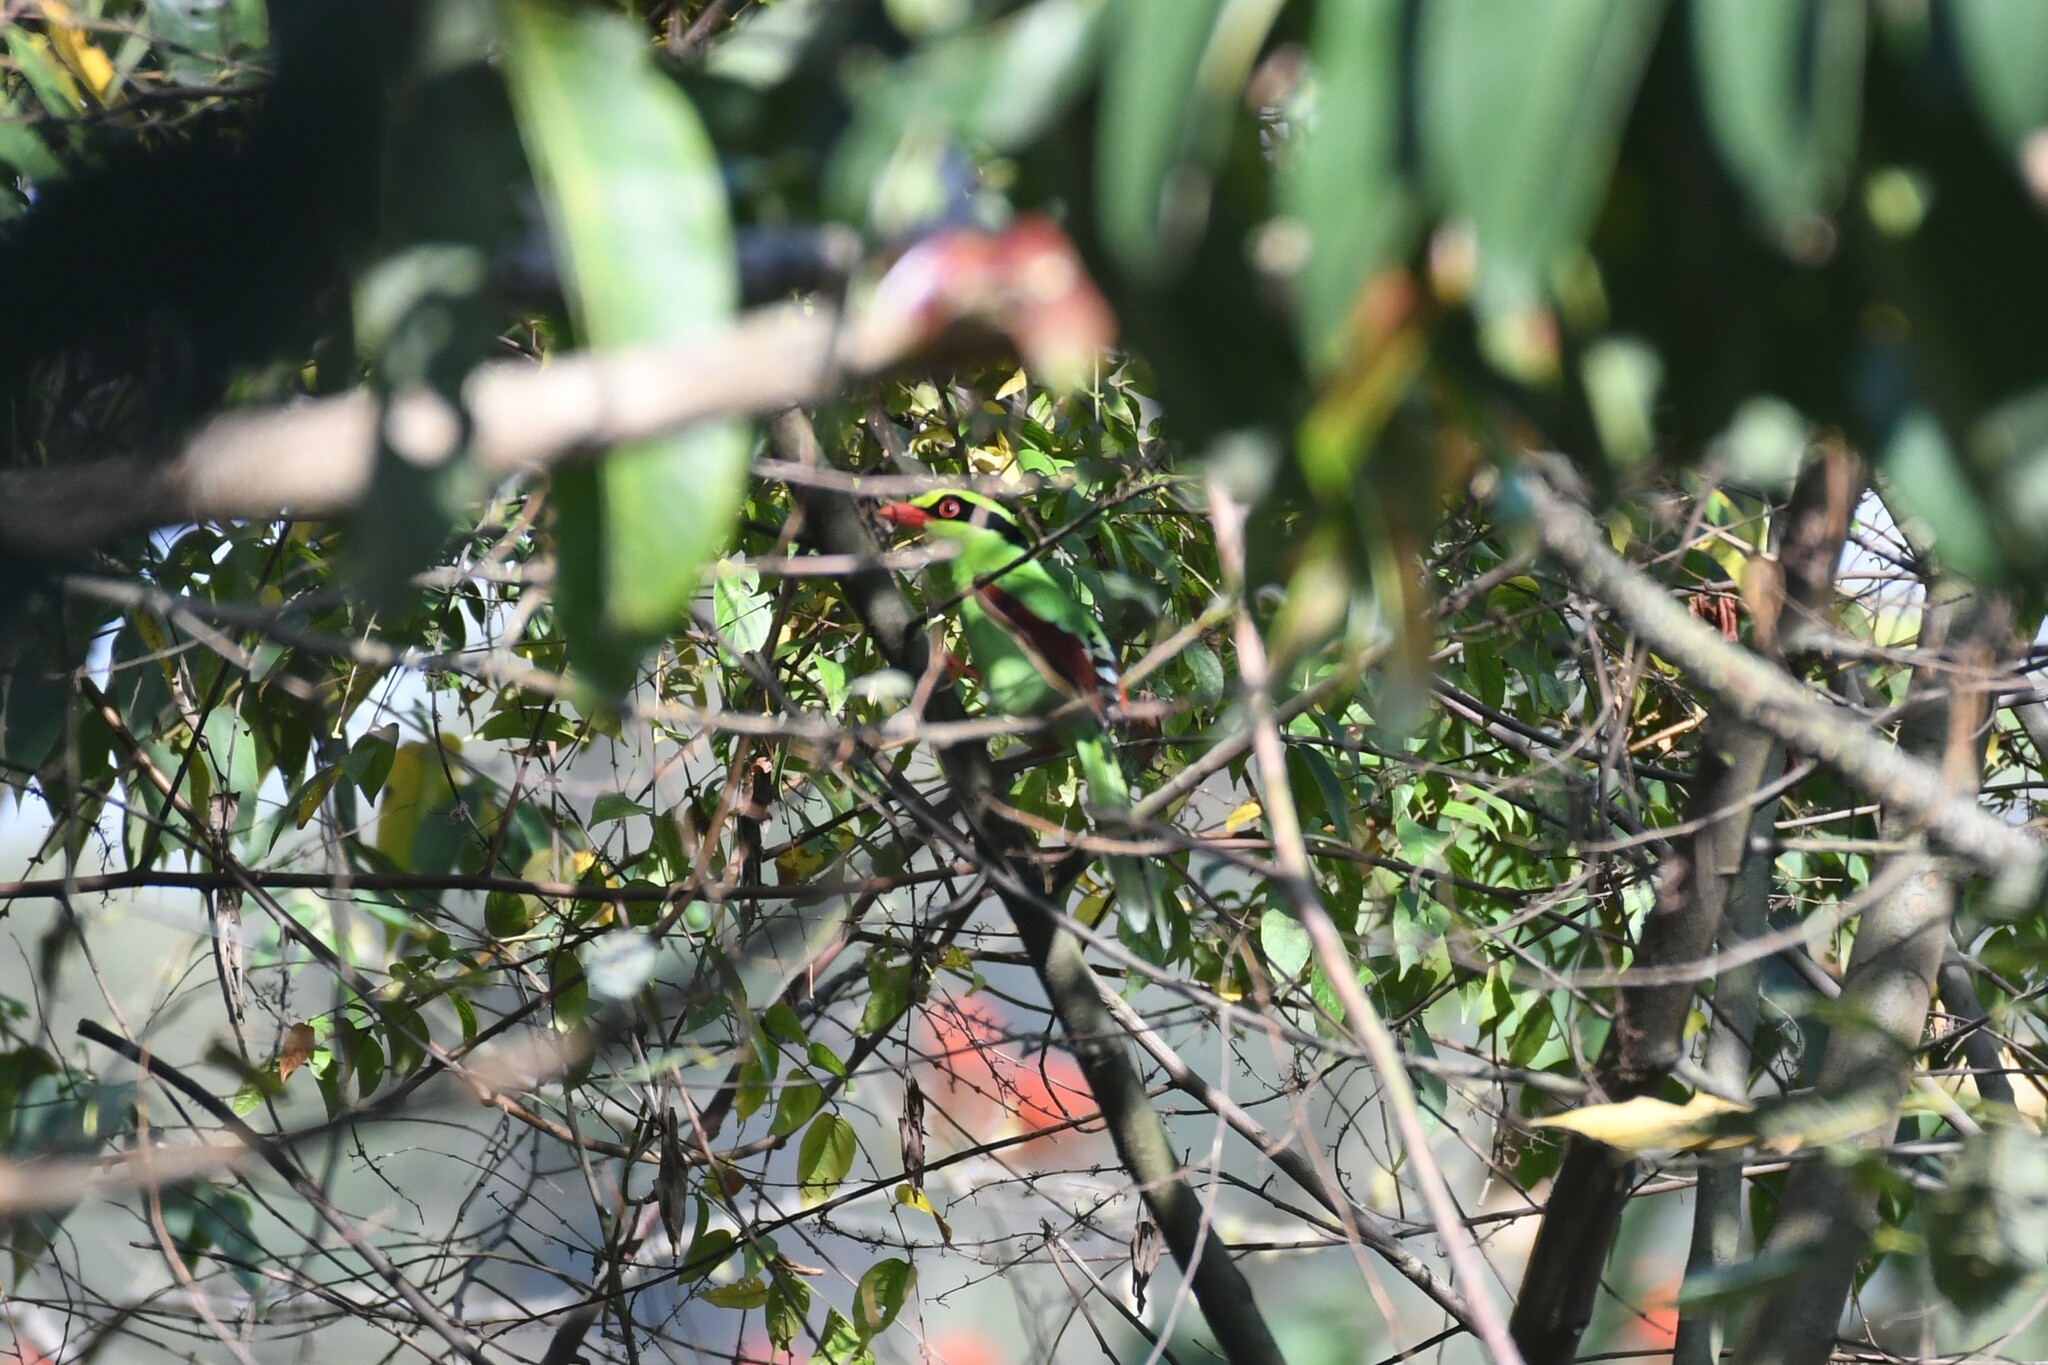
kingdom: Animalia
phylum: Chordata
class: Aves
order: Passeriformes
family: Corvidae
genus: Cissa
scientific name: Cissa chinensis
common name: Common green magpie
